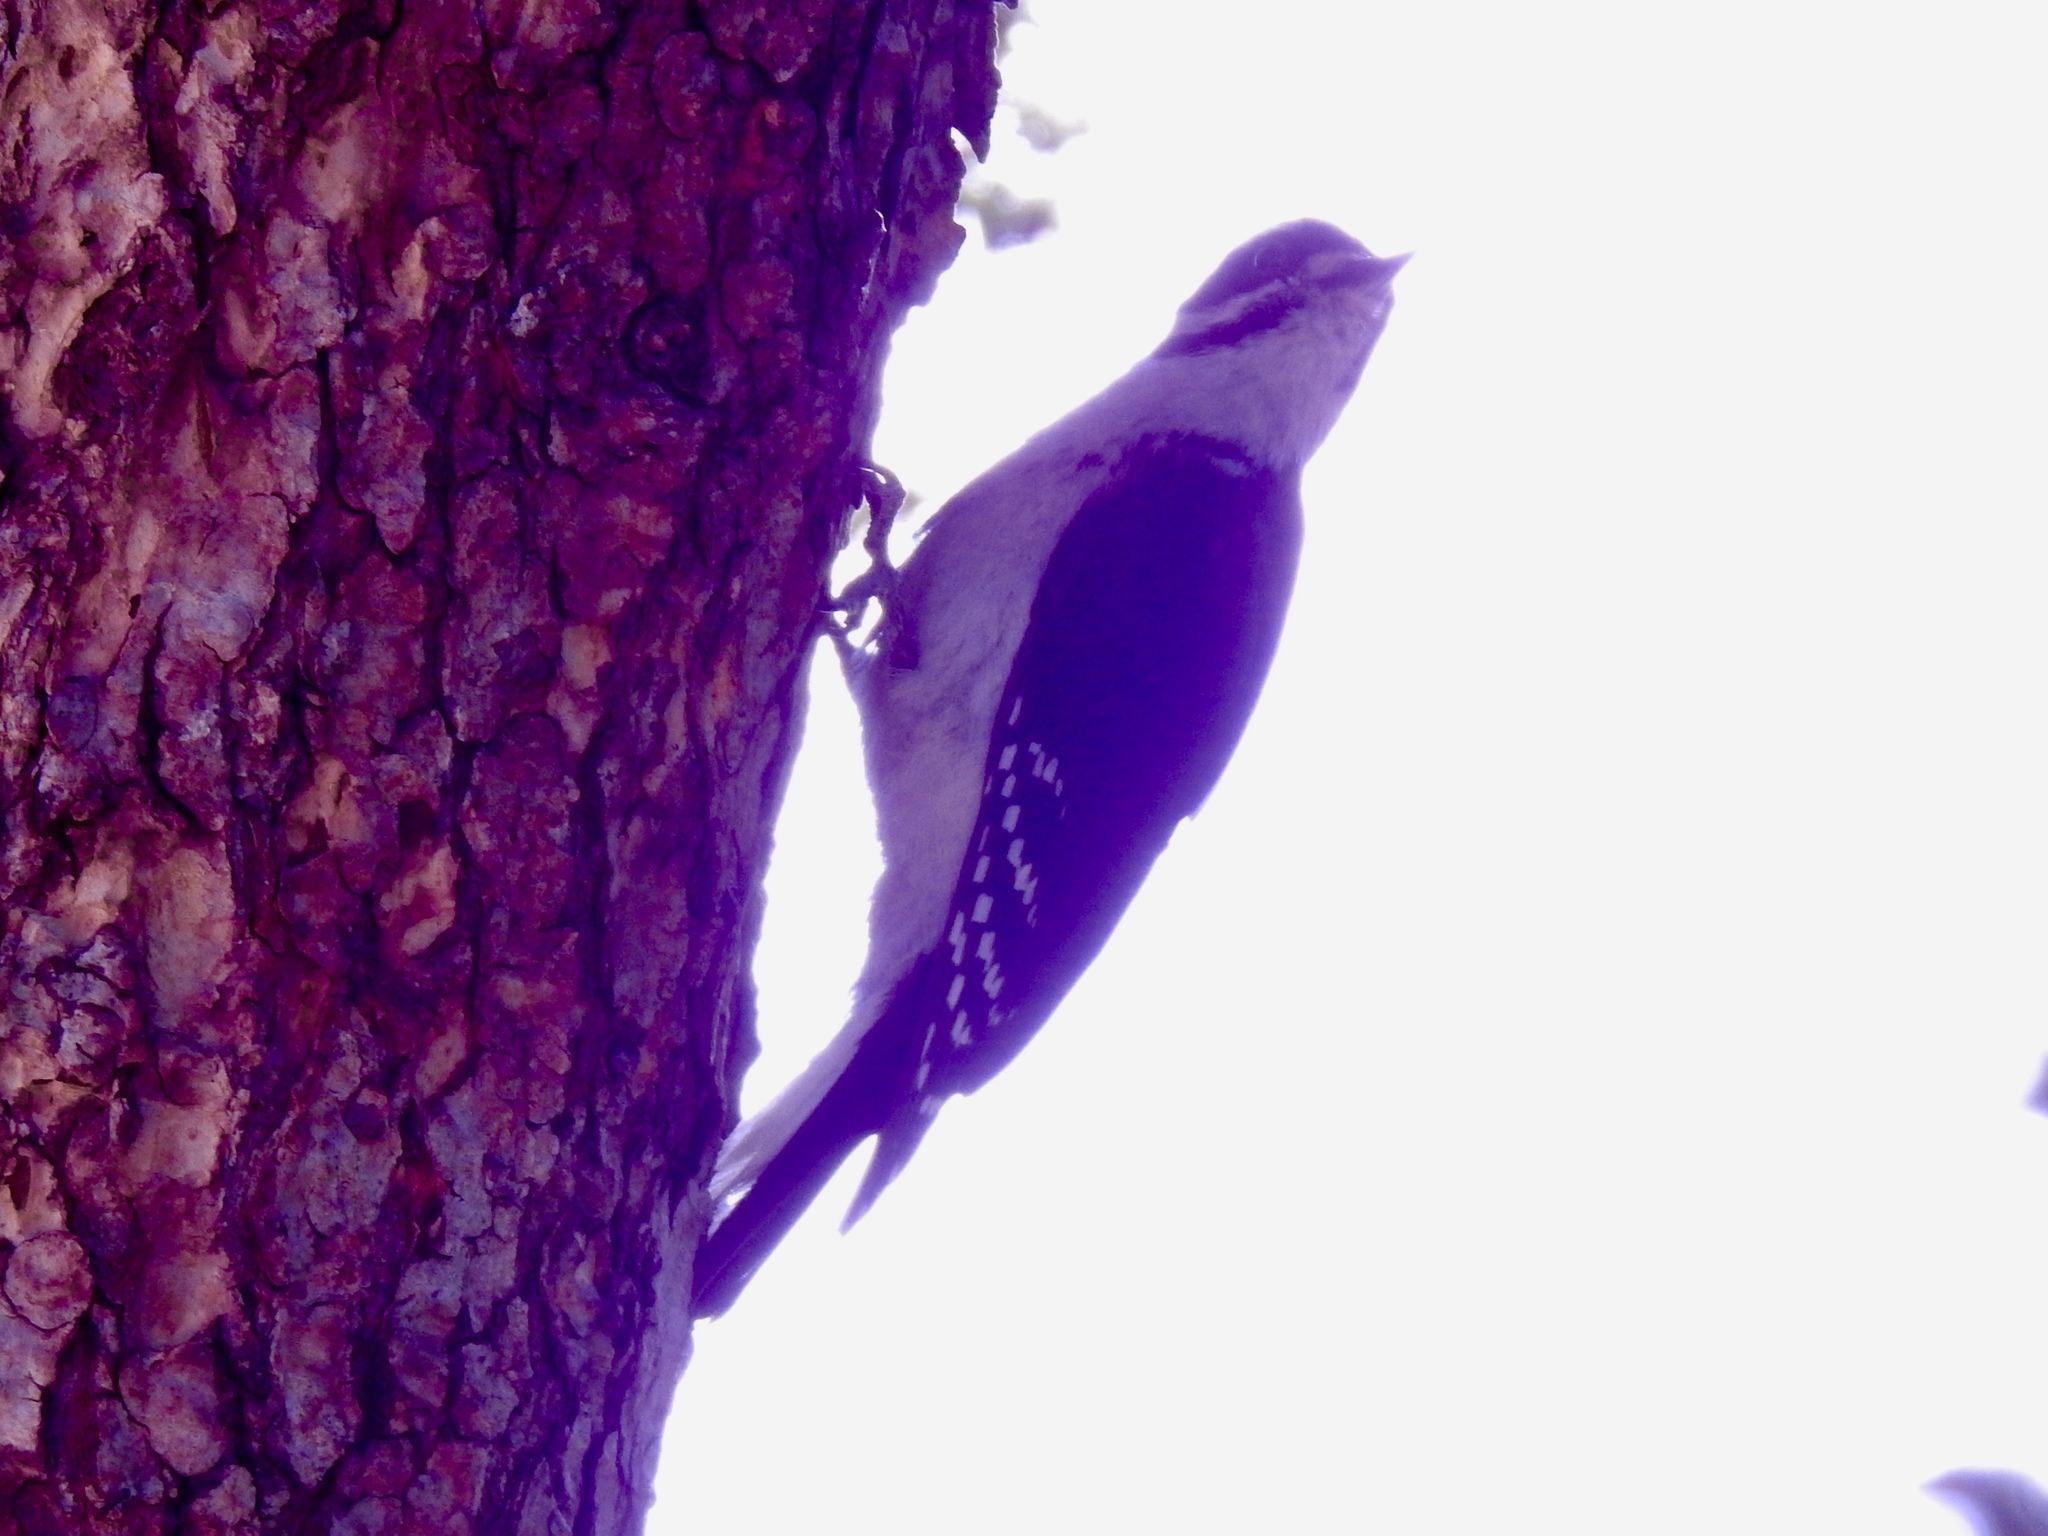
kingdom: Animalia
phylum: Chordata
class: Aves
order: Piciformes
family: Picidae
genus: Leuconotopicus
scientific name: Leuconotopicus villosus
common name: Hairy woodpecker
